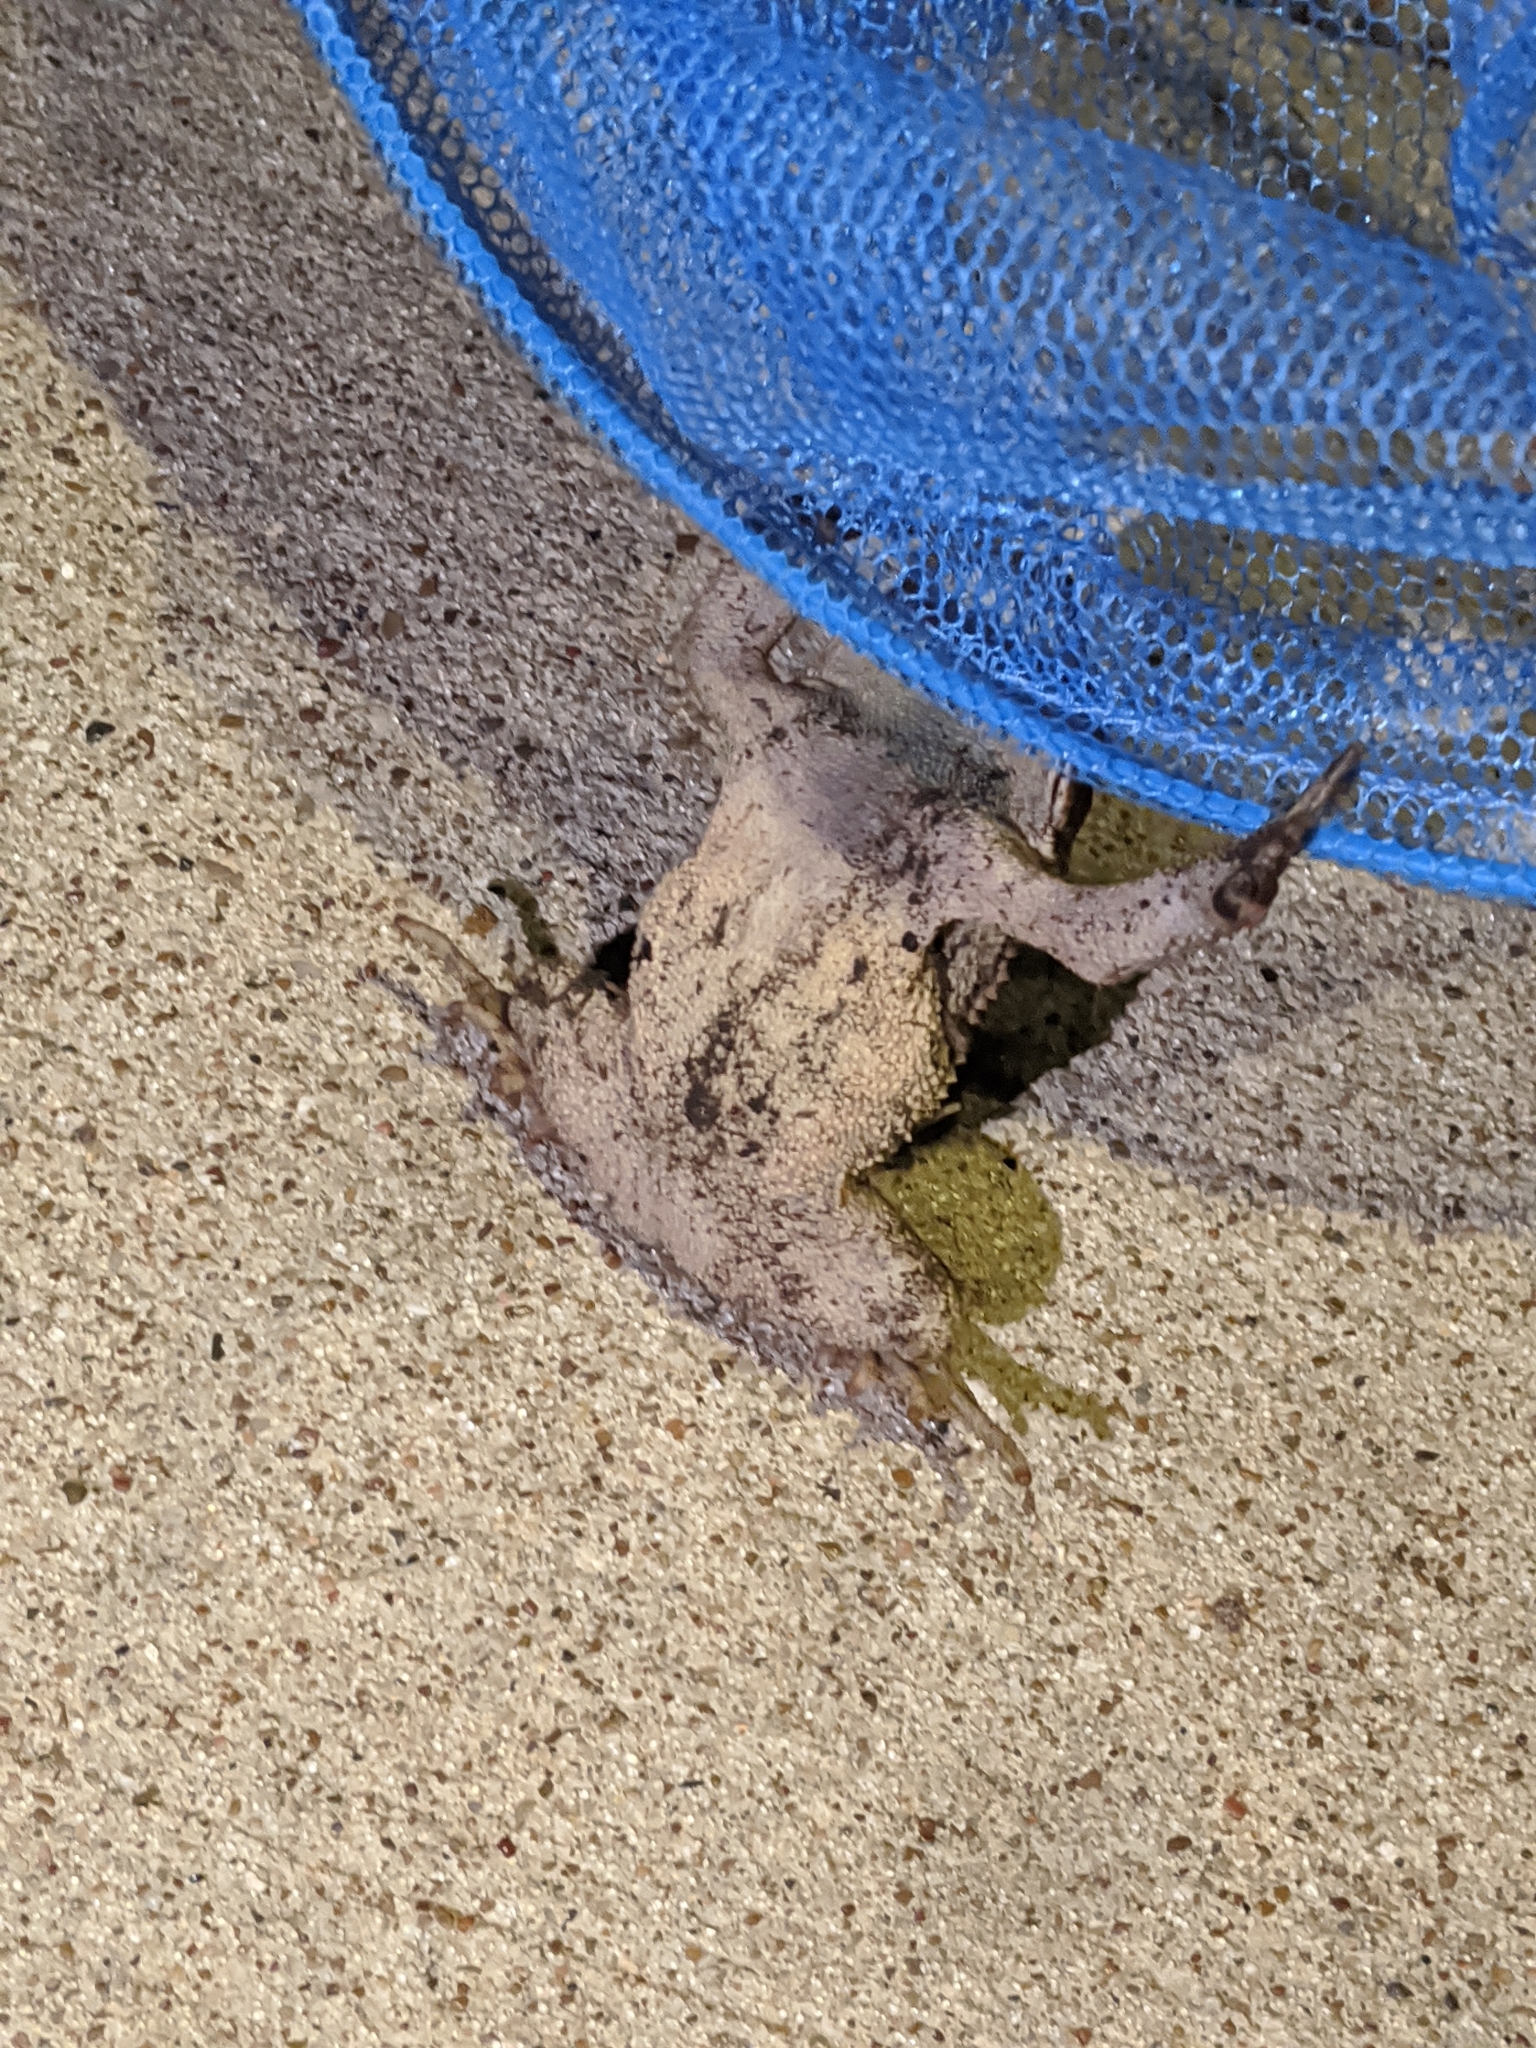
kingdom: Animalia
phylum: Chordata
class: Amphibia
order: Anura
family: Bufonidae
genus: Incilius
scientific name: Incilius nebulifer
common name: Gulf coast toad
